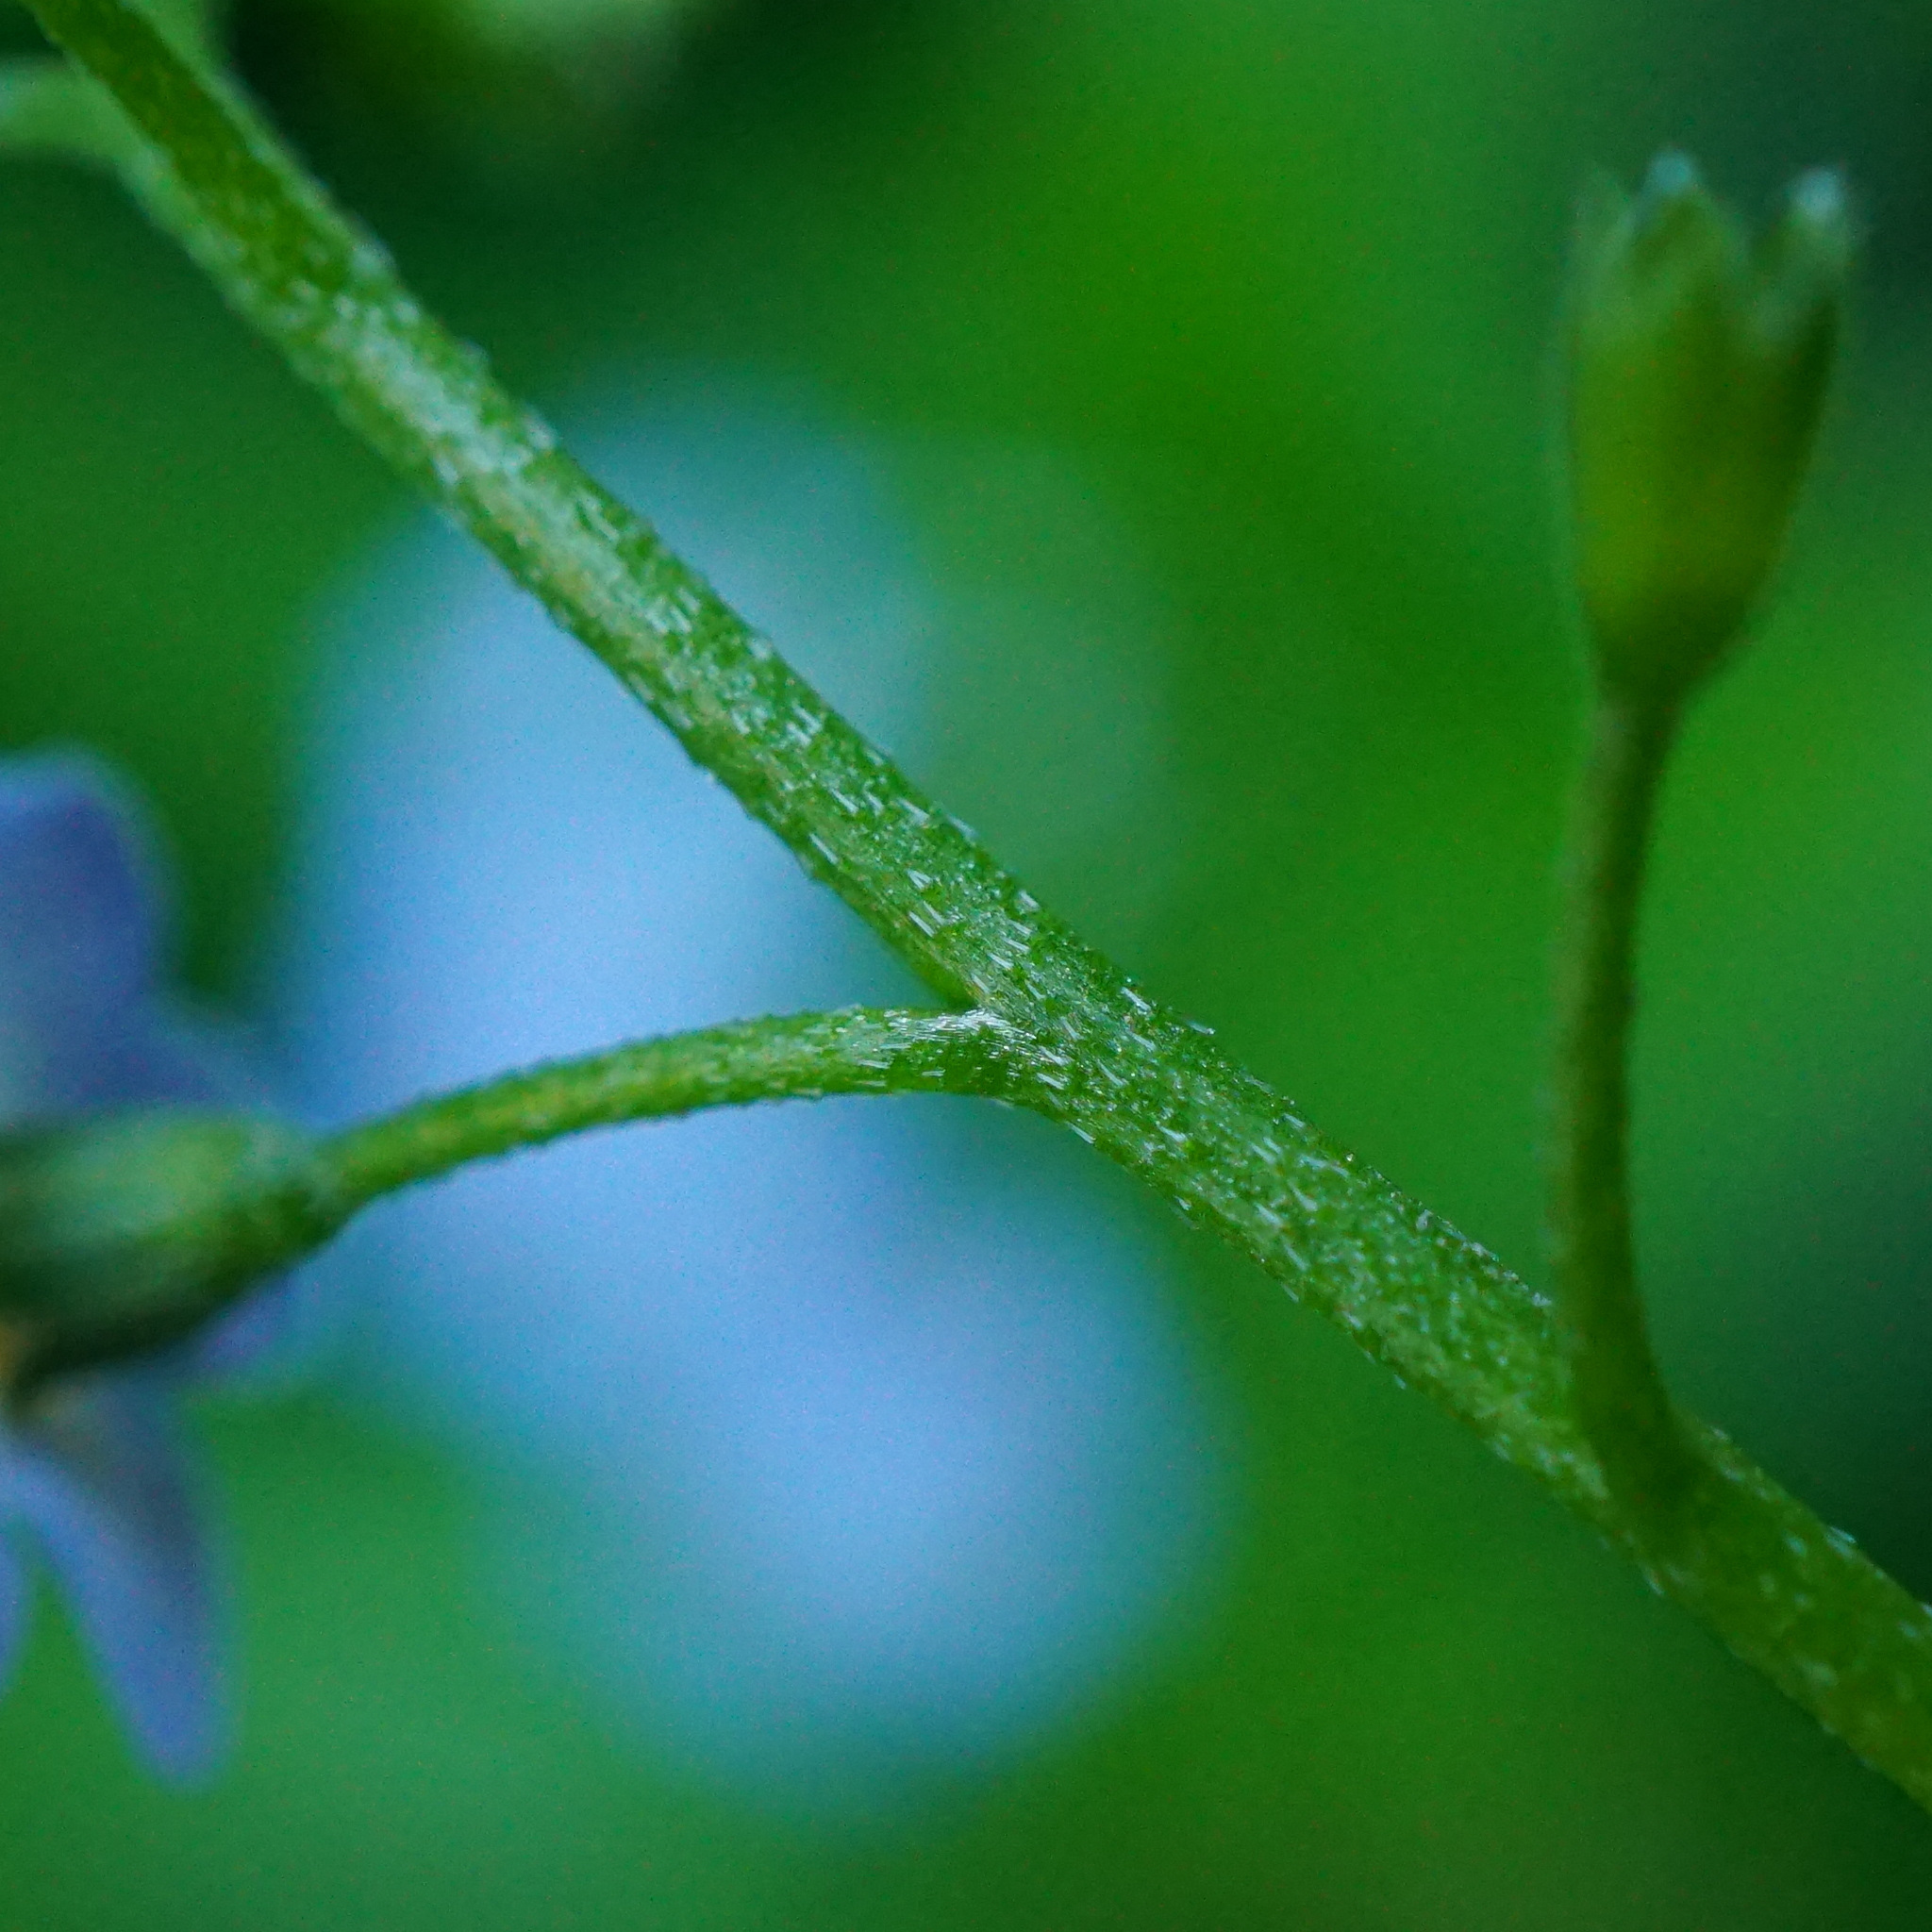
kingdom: Plantae
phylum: Tracheophyta
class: Magnoliopsida
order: Boraginales
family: Boraginaceae
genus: Myosotis
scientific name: Myosotis scorpioides
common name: Water forget-me-not
